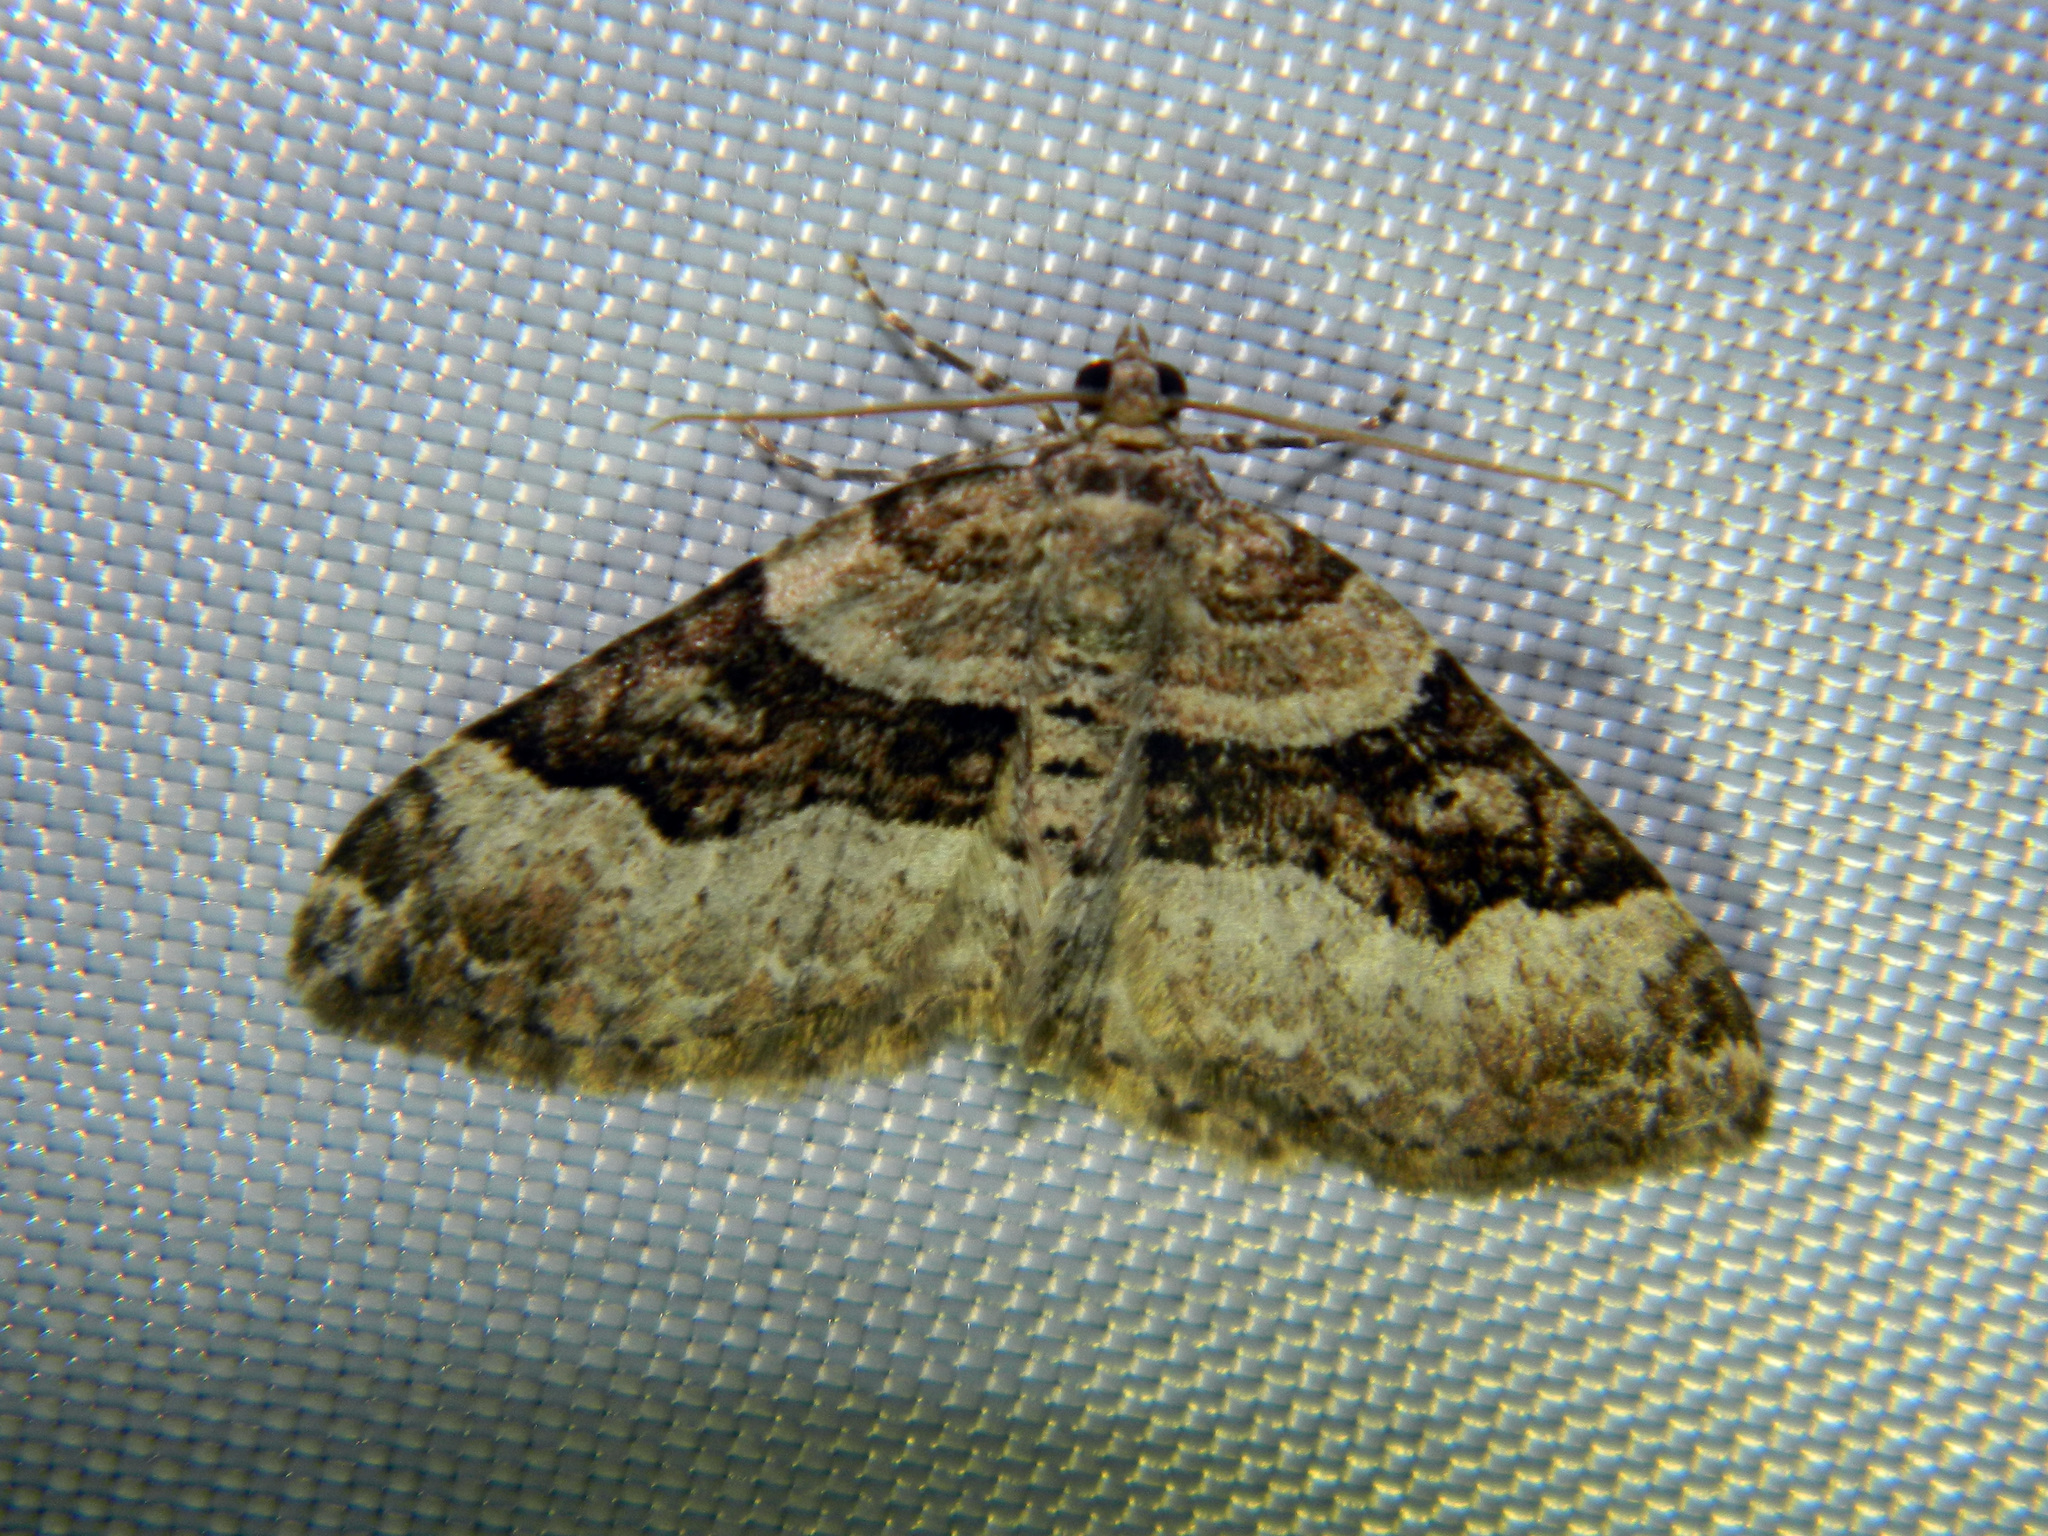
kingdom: Animalia
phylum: Arthropoda
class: Insecta
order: Lepidoptera
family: Geometridae
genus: Xanthorhoe
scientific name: Xanthorhoe lacustrata
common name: Toothed brown carpet
